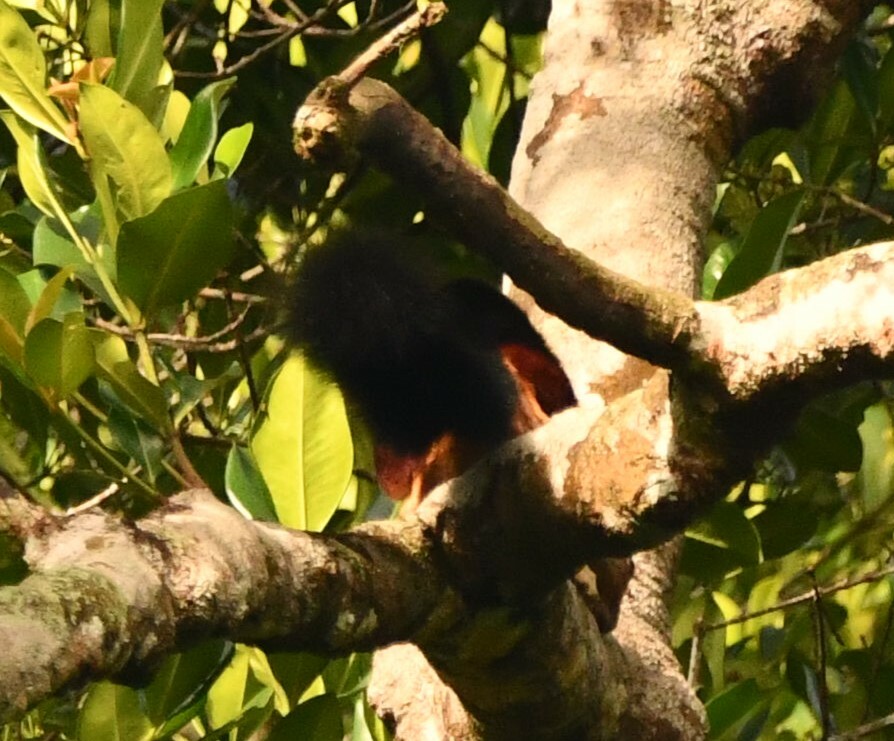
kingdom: Animalia
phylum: Chordata
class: Mammalia
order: Rodentia
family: Sciuridae
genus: Ratufa
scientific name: Ratufa indica
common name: Indian giant squirrel
